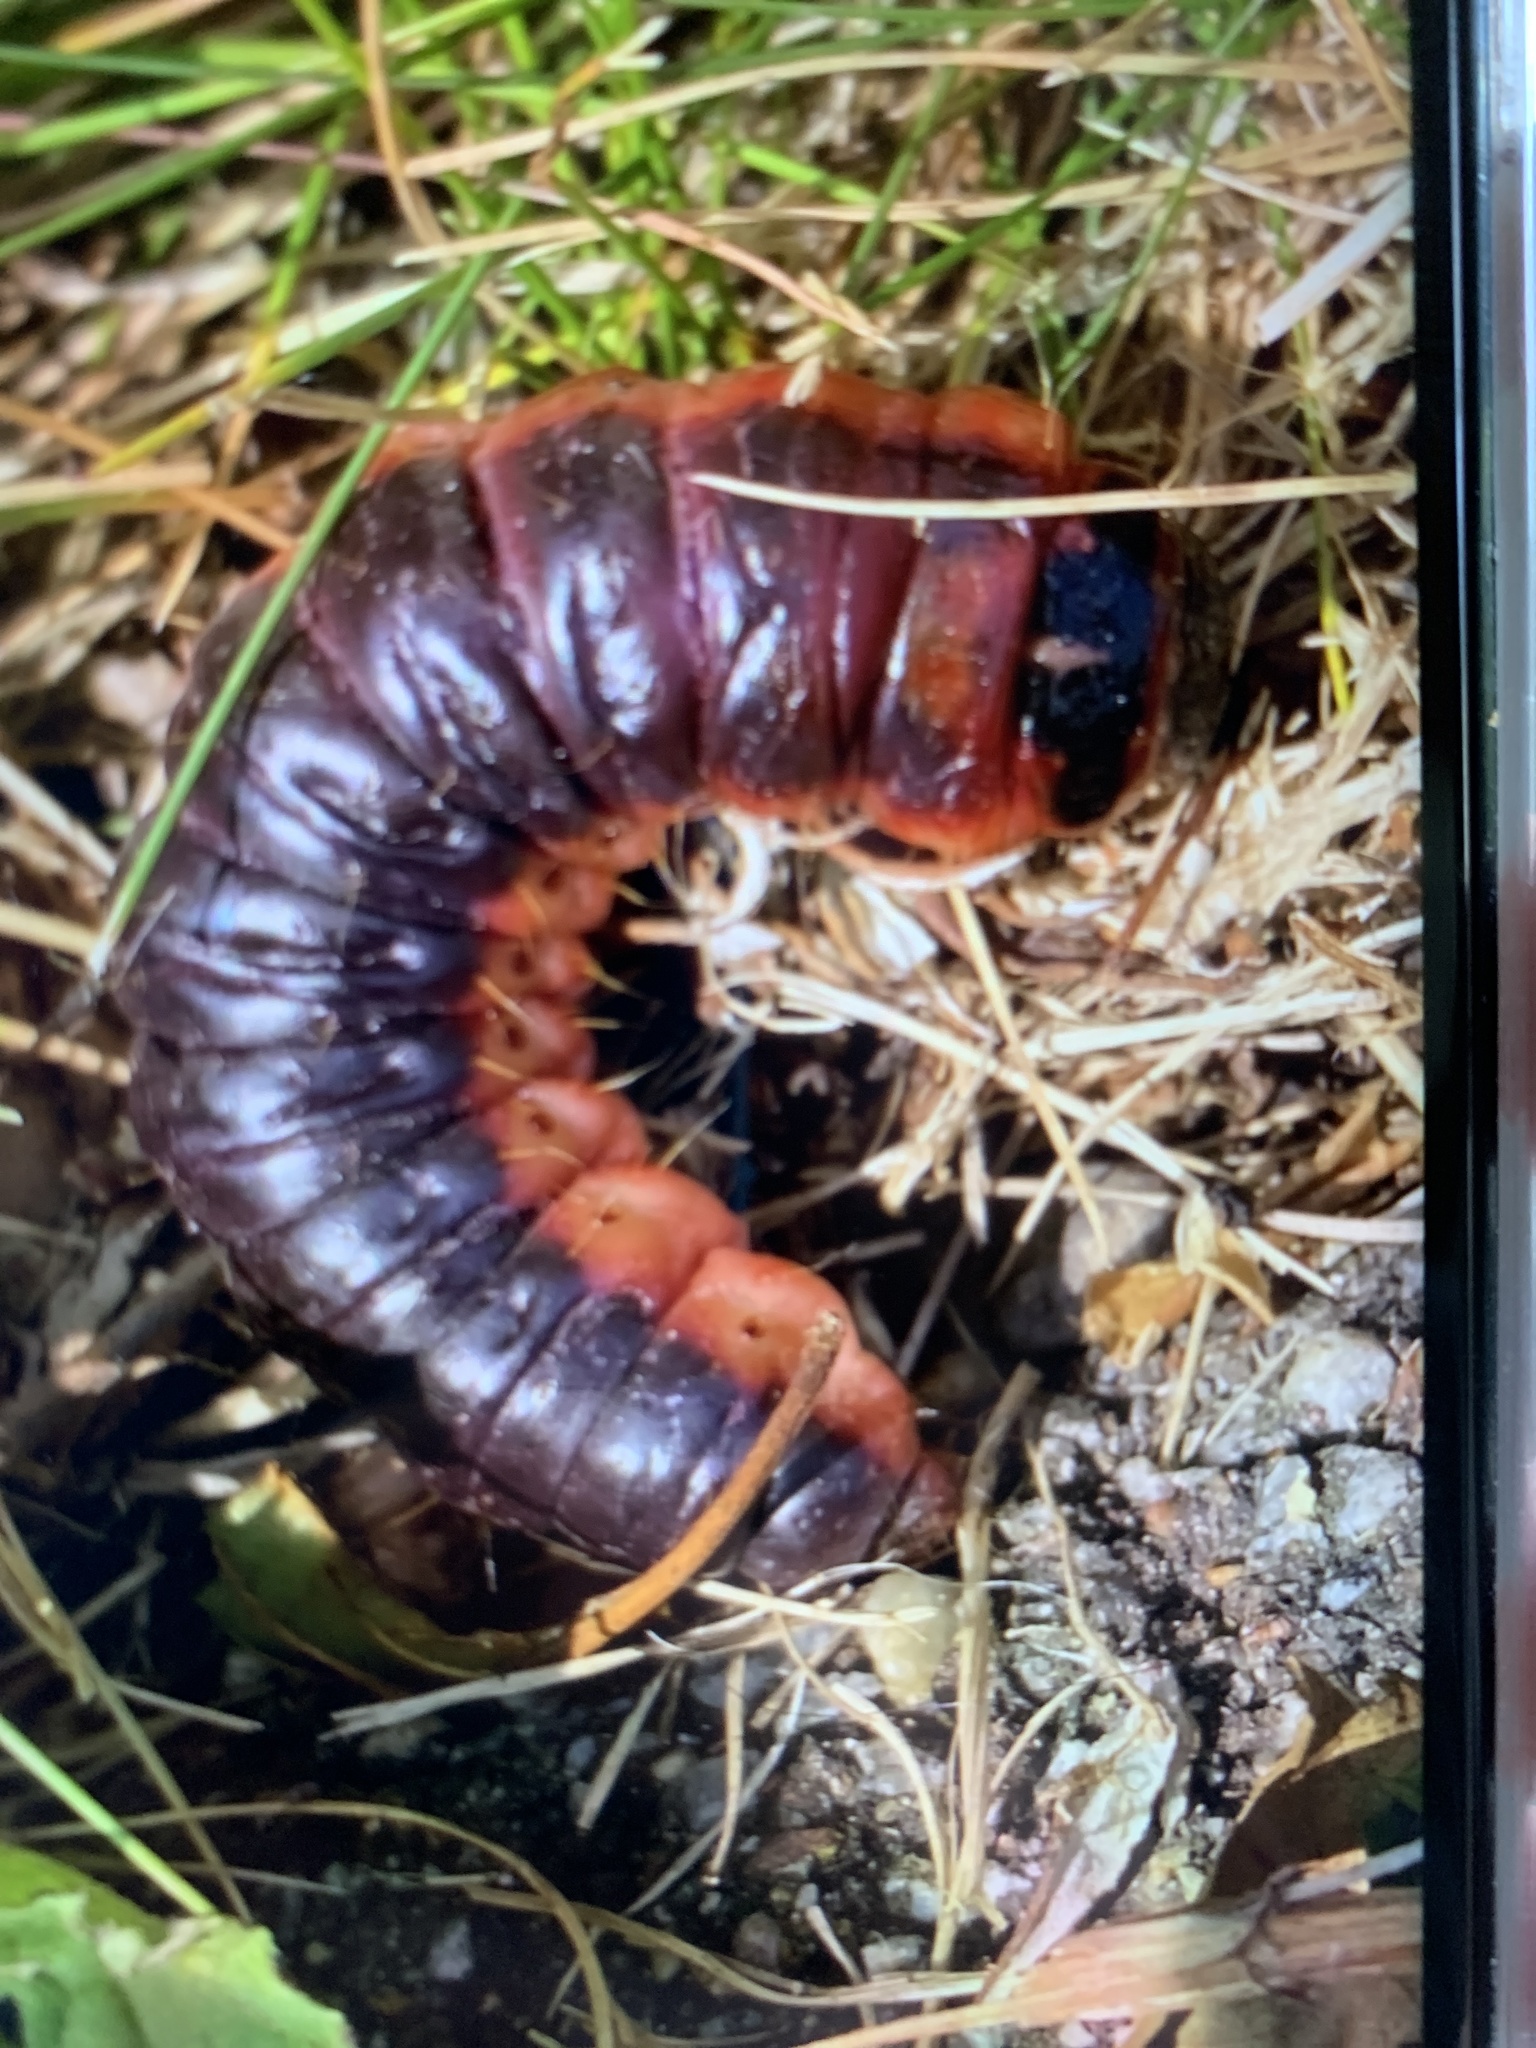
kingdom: Animalia
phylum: Arthropoda
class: Insecta
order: Lepidoptera
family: Cossidae
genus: Cossus
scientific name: Cossus cossus
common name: Goat moth
